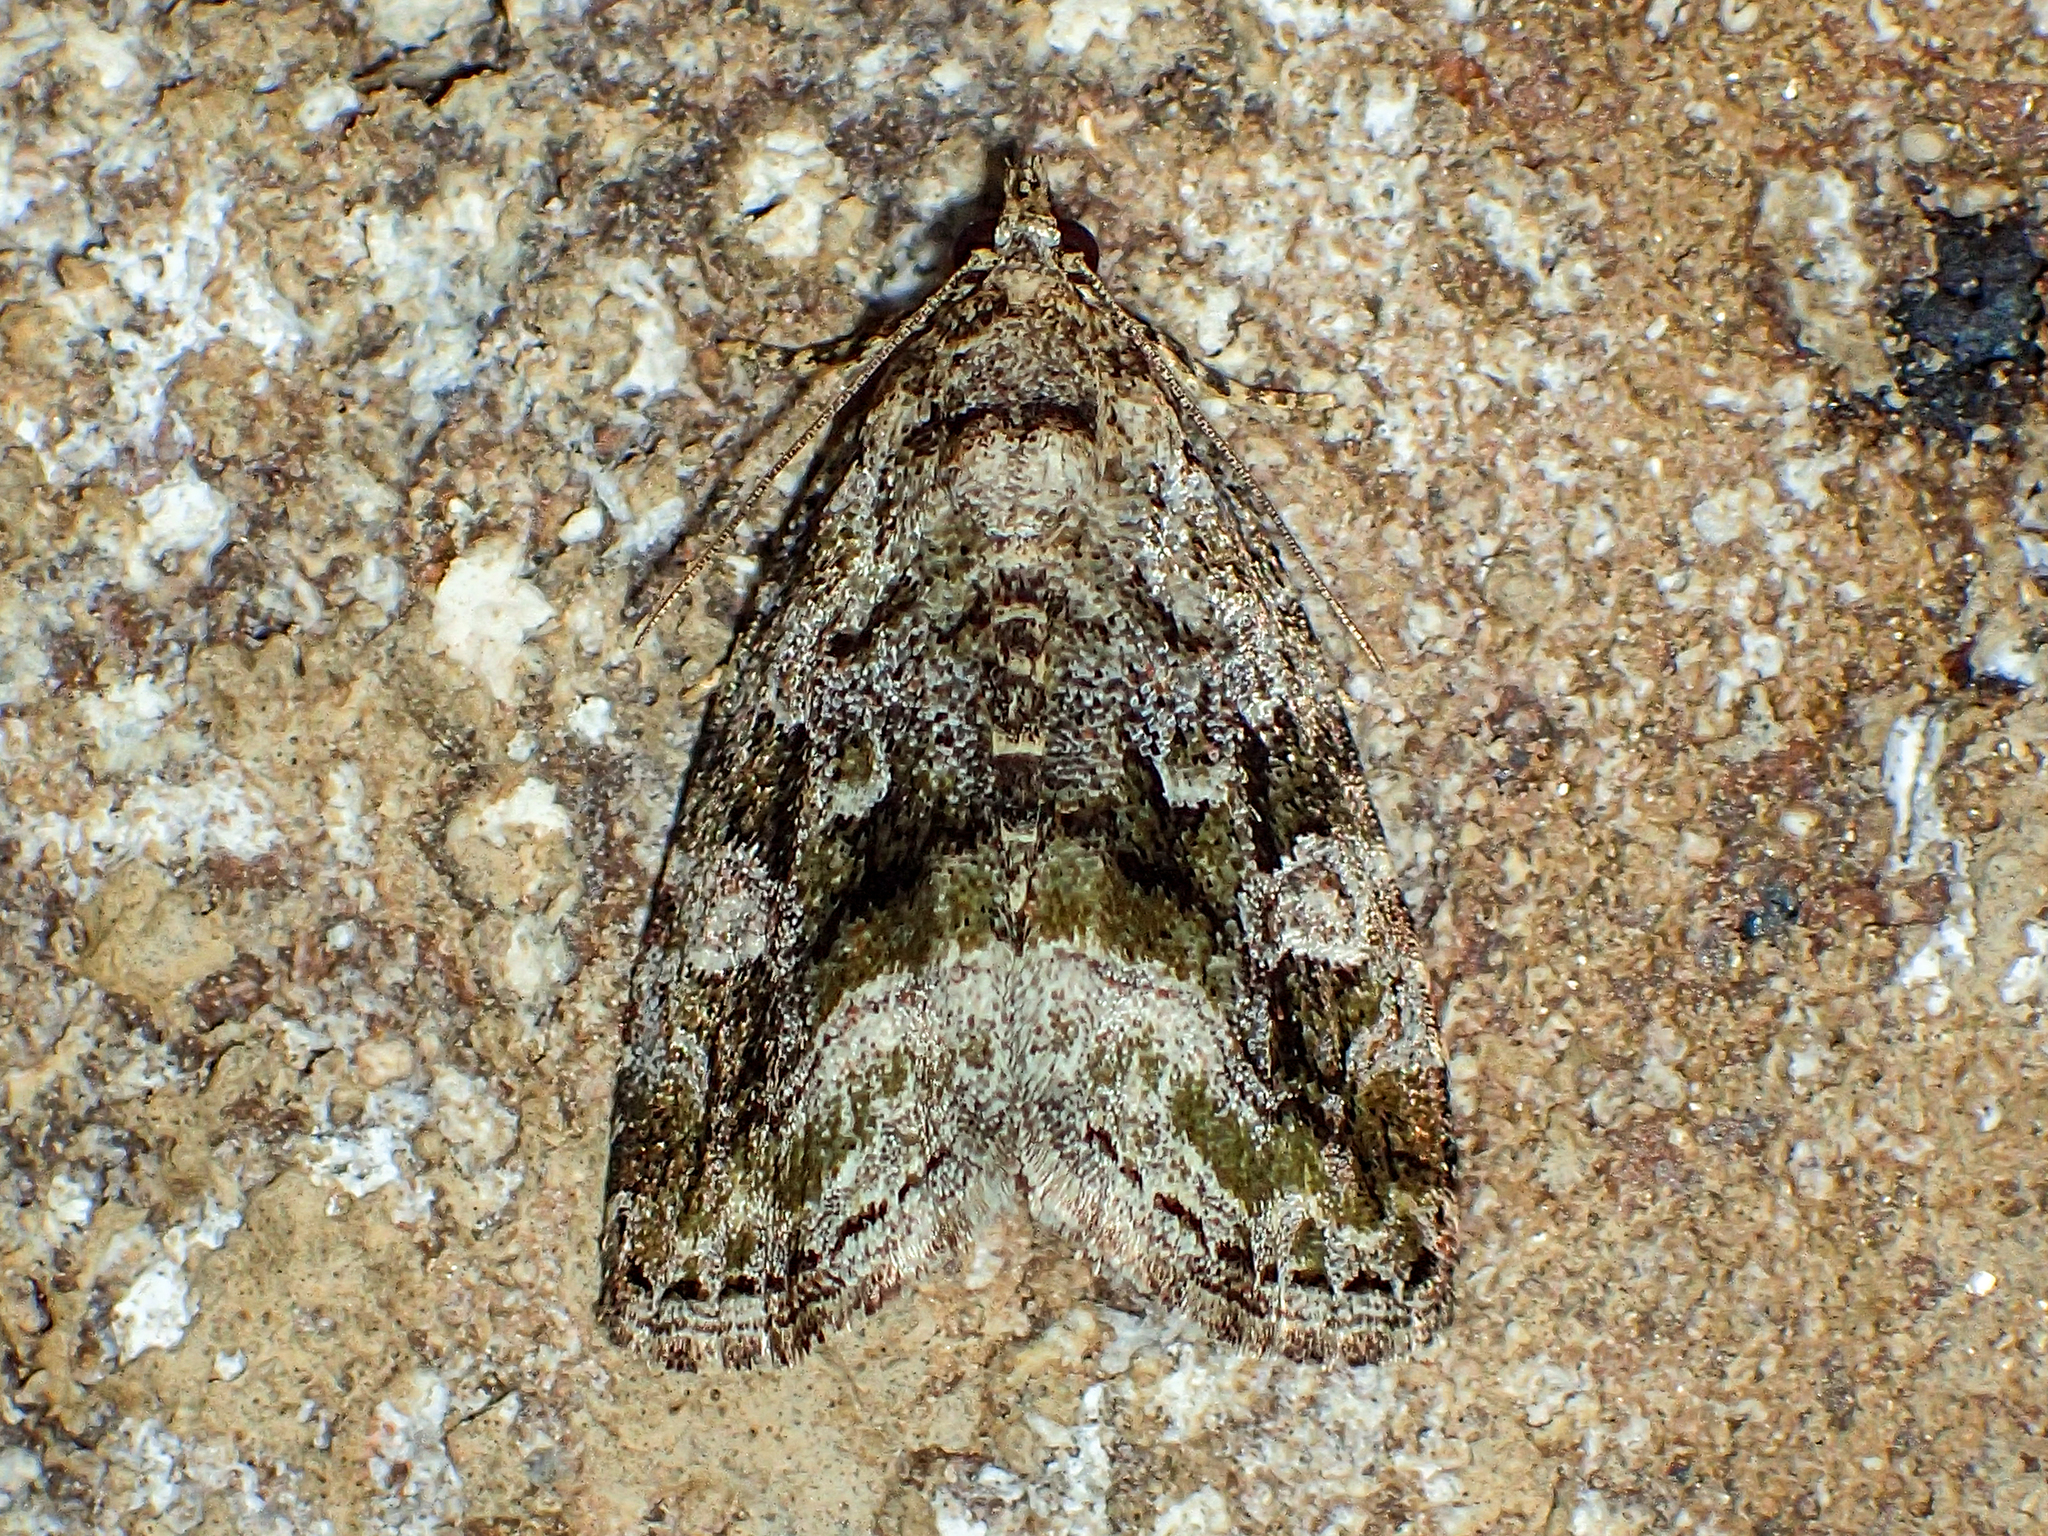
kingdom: Animalia
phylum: Arthropoda
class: Insecta
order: Lepidoptera
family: Noctuidae
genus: Protodeltote
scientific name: Protodeltote muscosula
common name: Large mossy glyph
